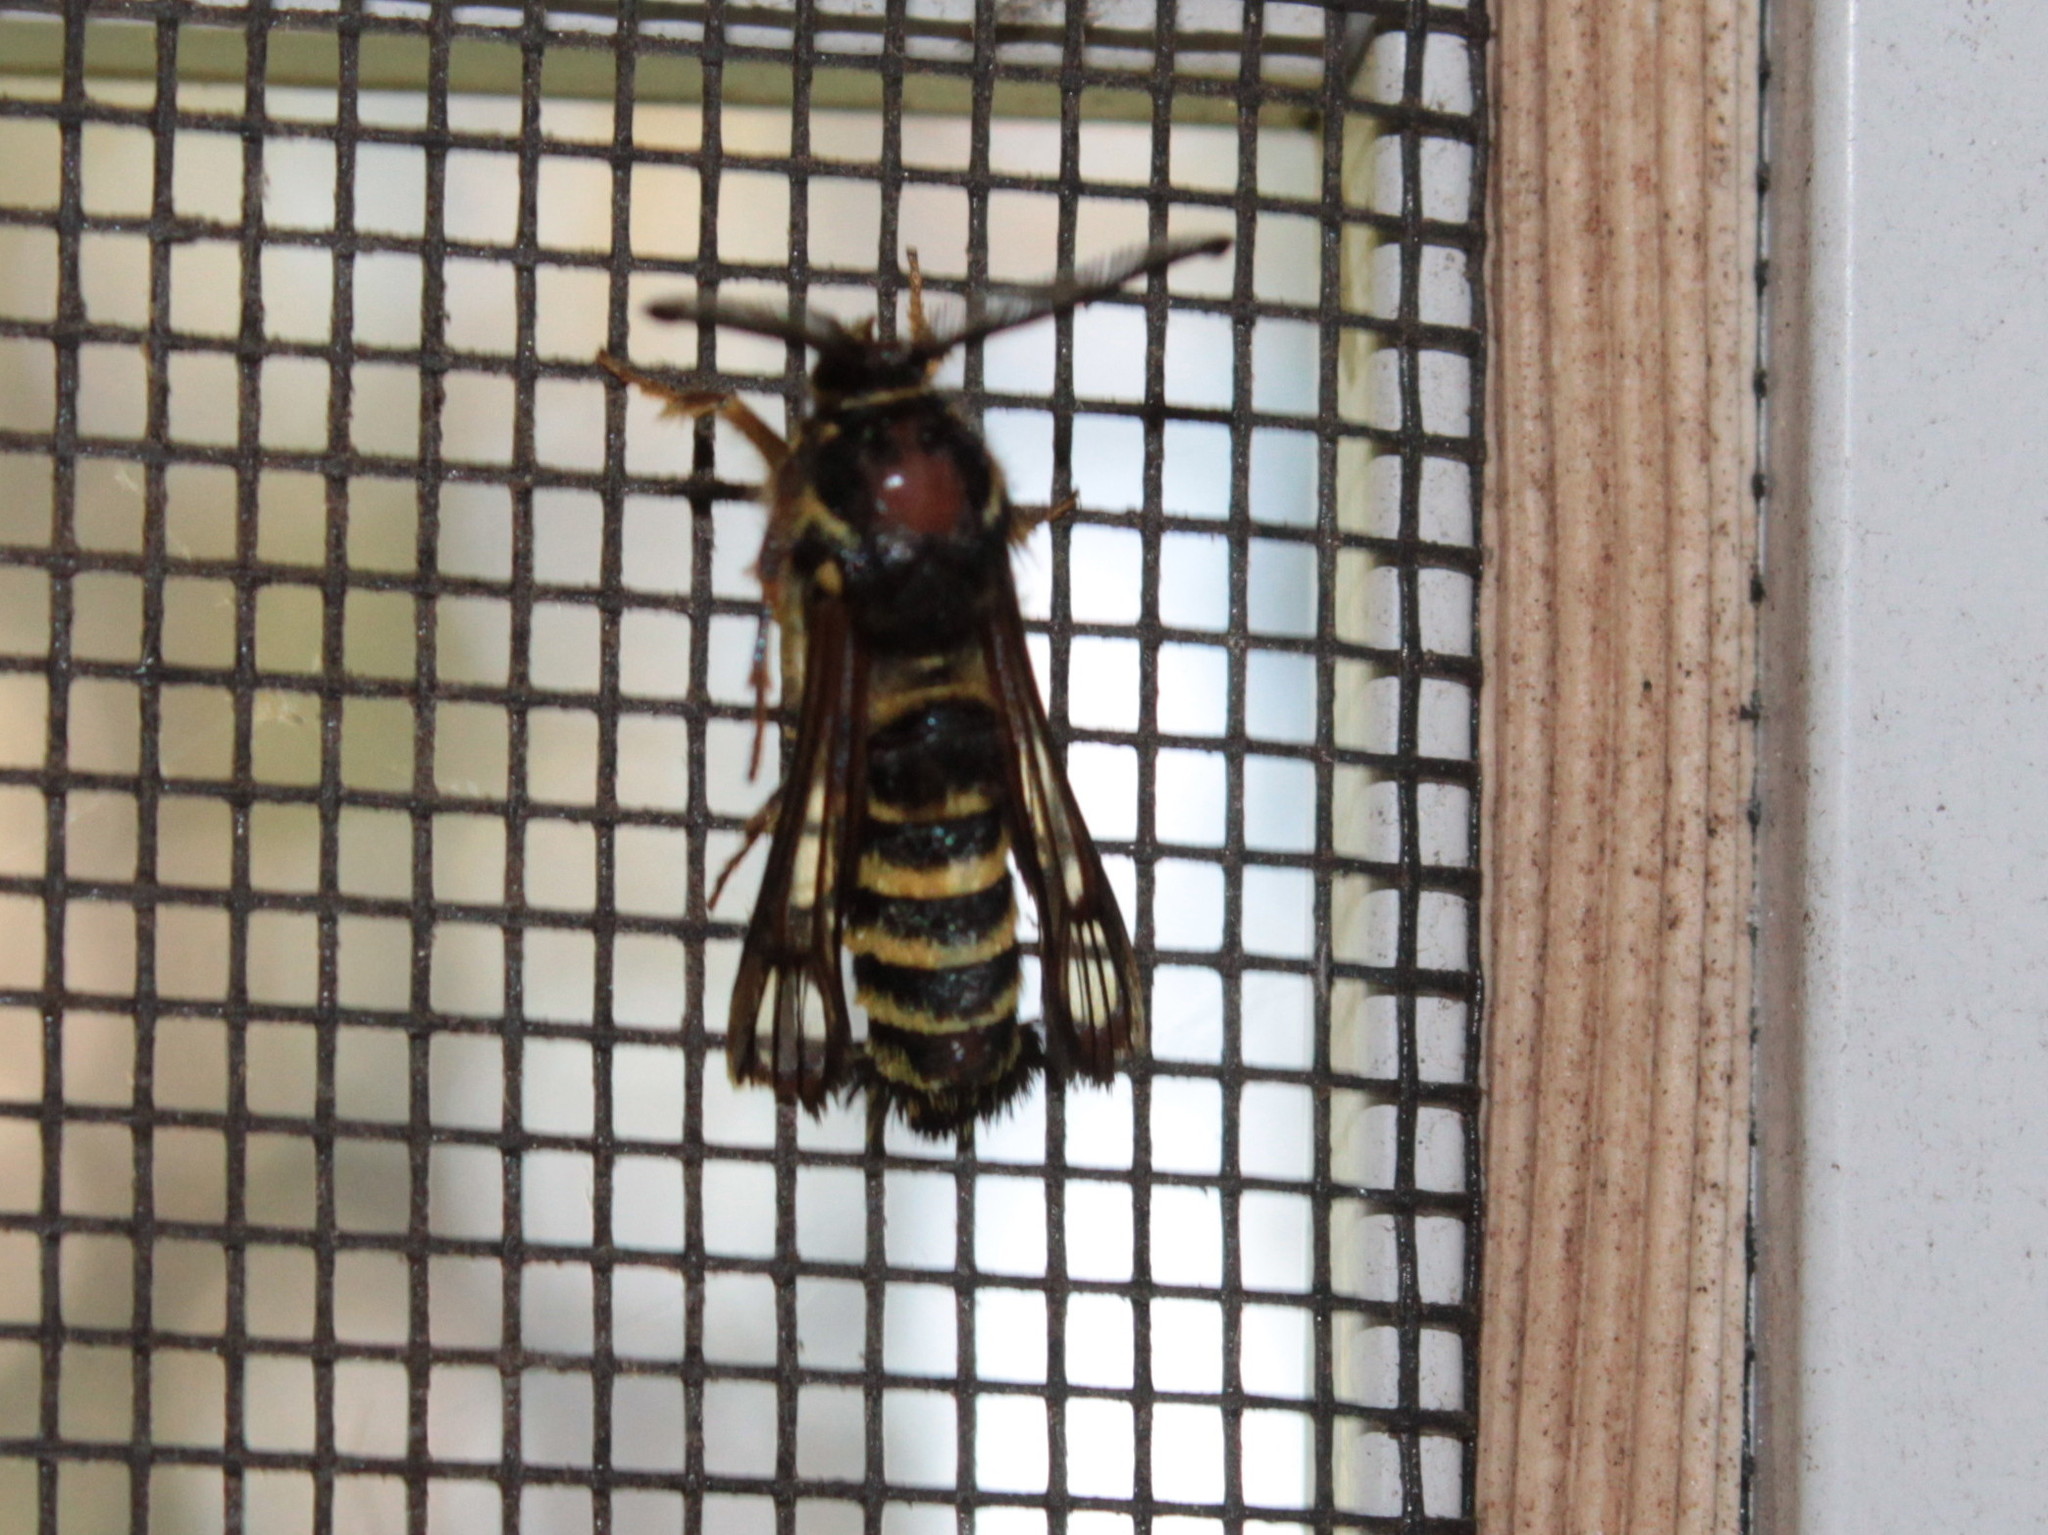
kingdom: Animalia
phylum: Arthropoda
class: Insecta
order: Lepidoptera
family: Sesiidae
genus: Pennisetia
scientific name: Pennisetia marginatum
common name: Raspberry crown borer
